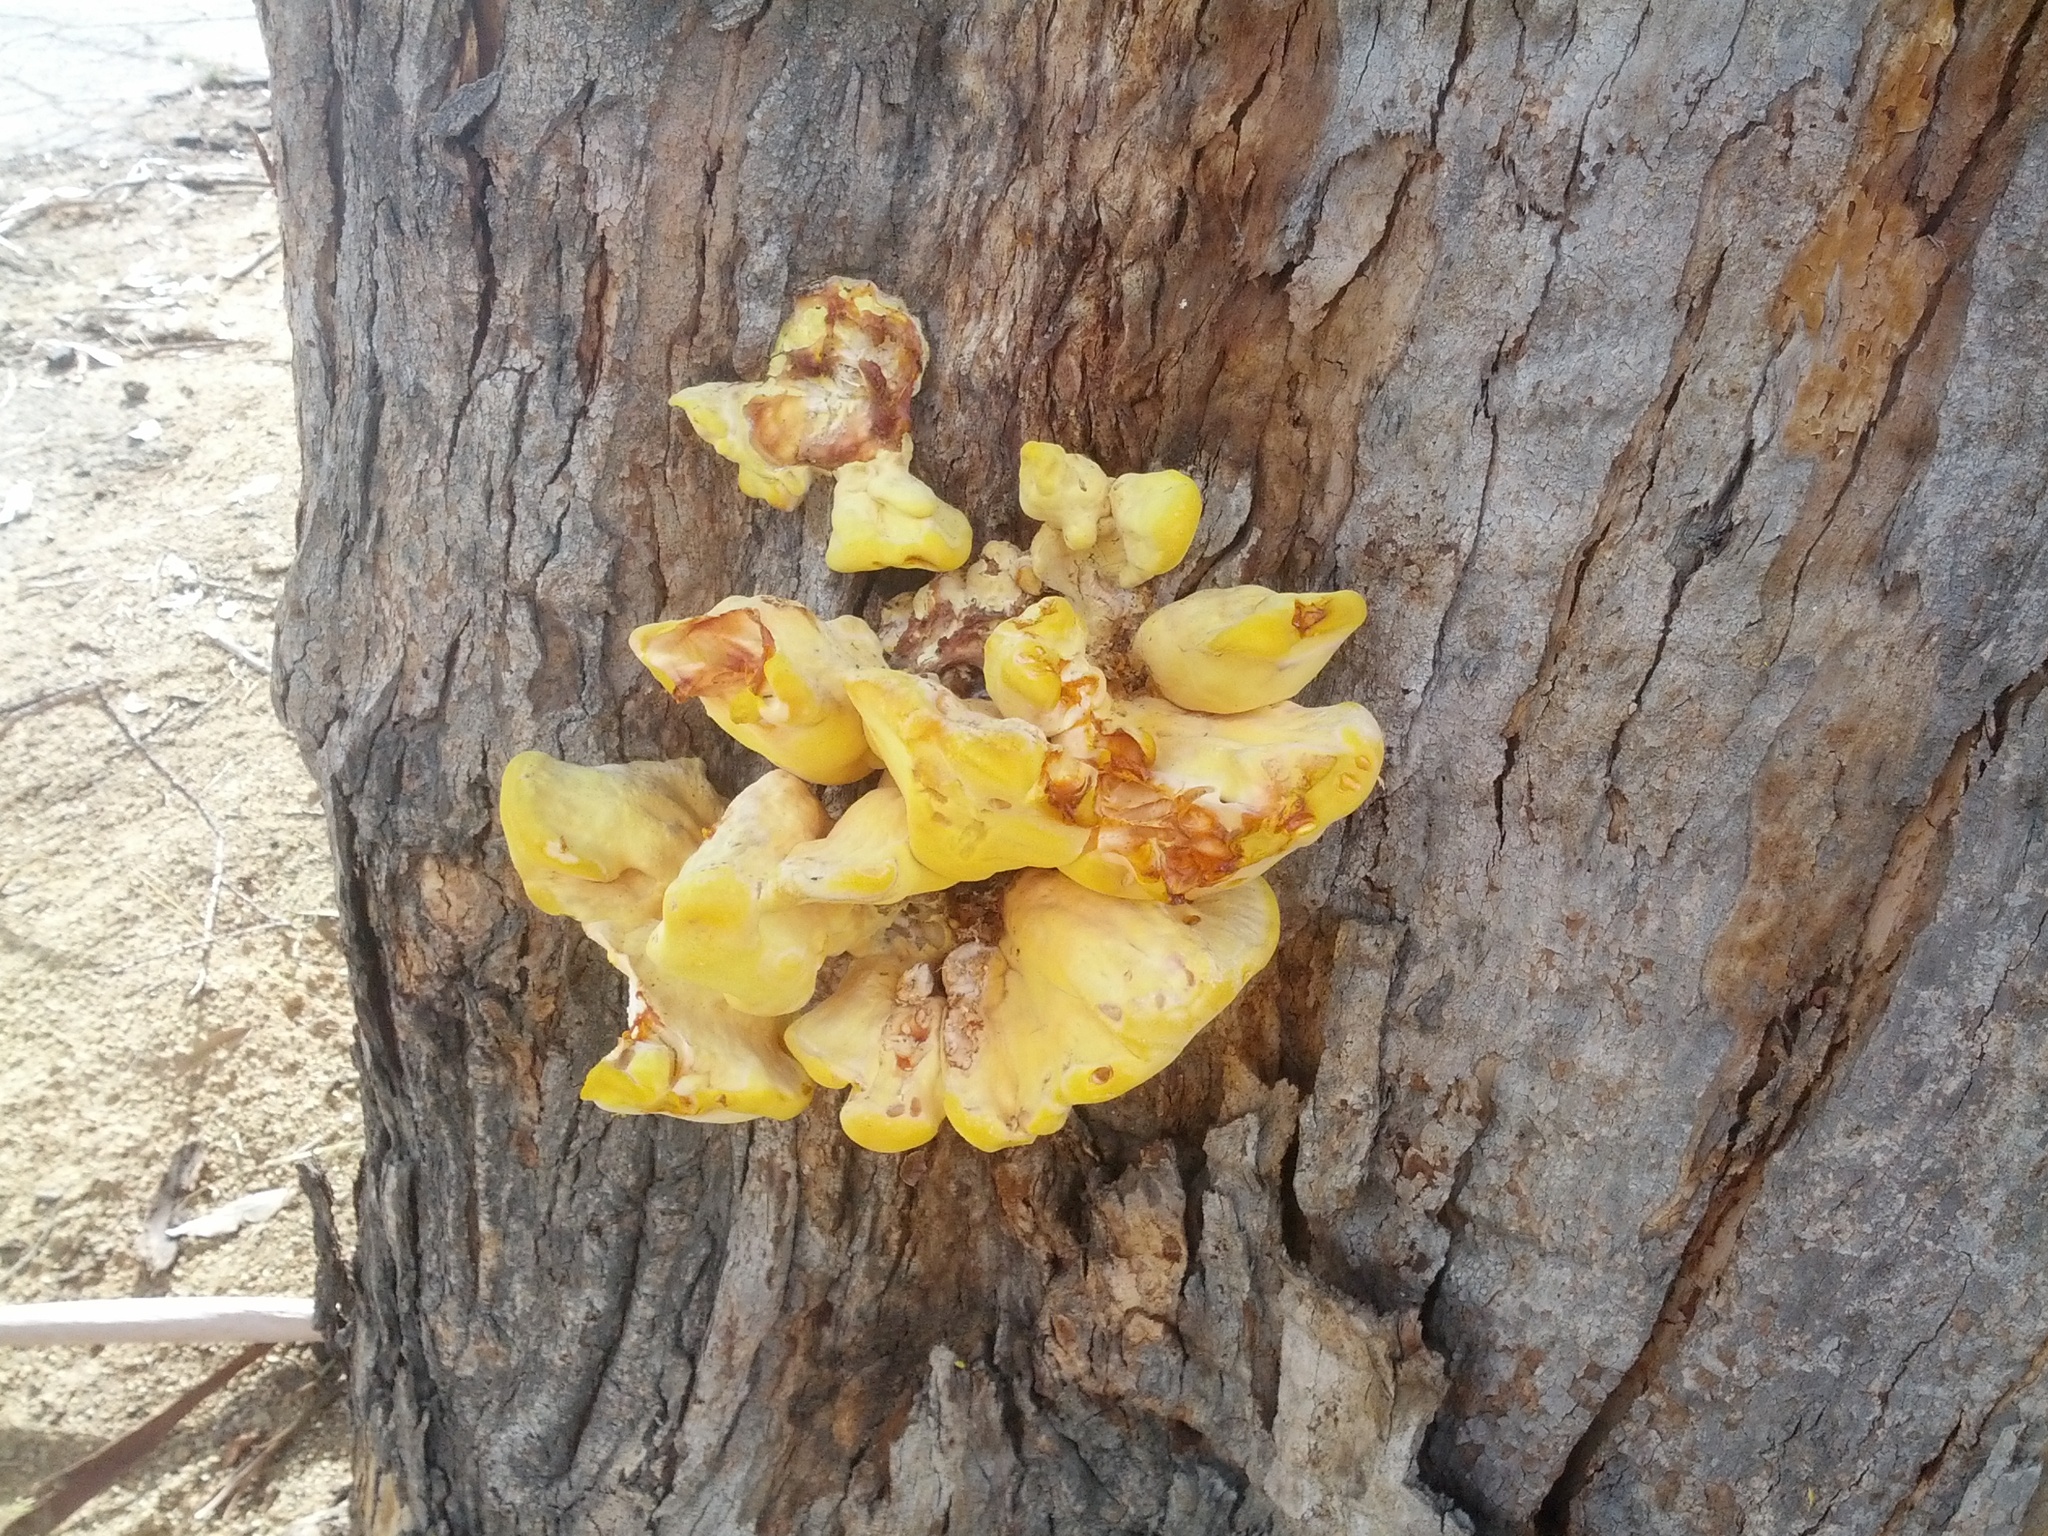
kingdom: Fungi
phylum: Basidiomycota
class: Agaricomycetes
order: Polyporales
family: Laetiporaceae
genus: Laetiporus
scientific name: Laetiporus gilbertsonii
